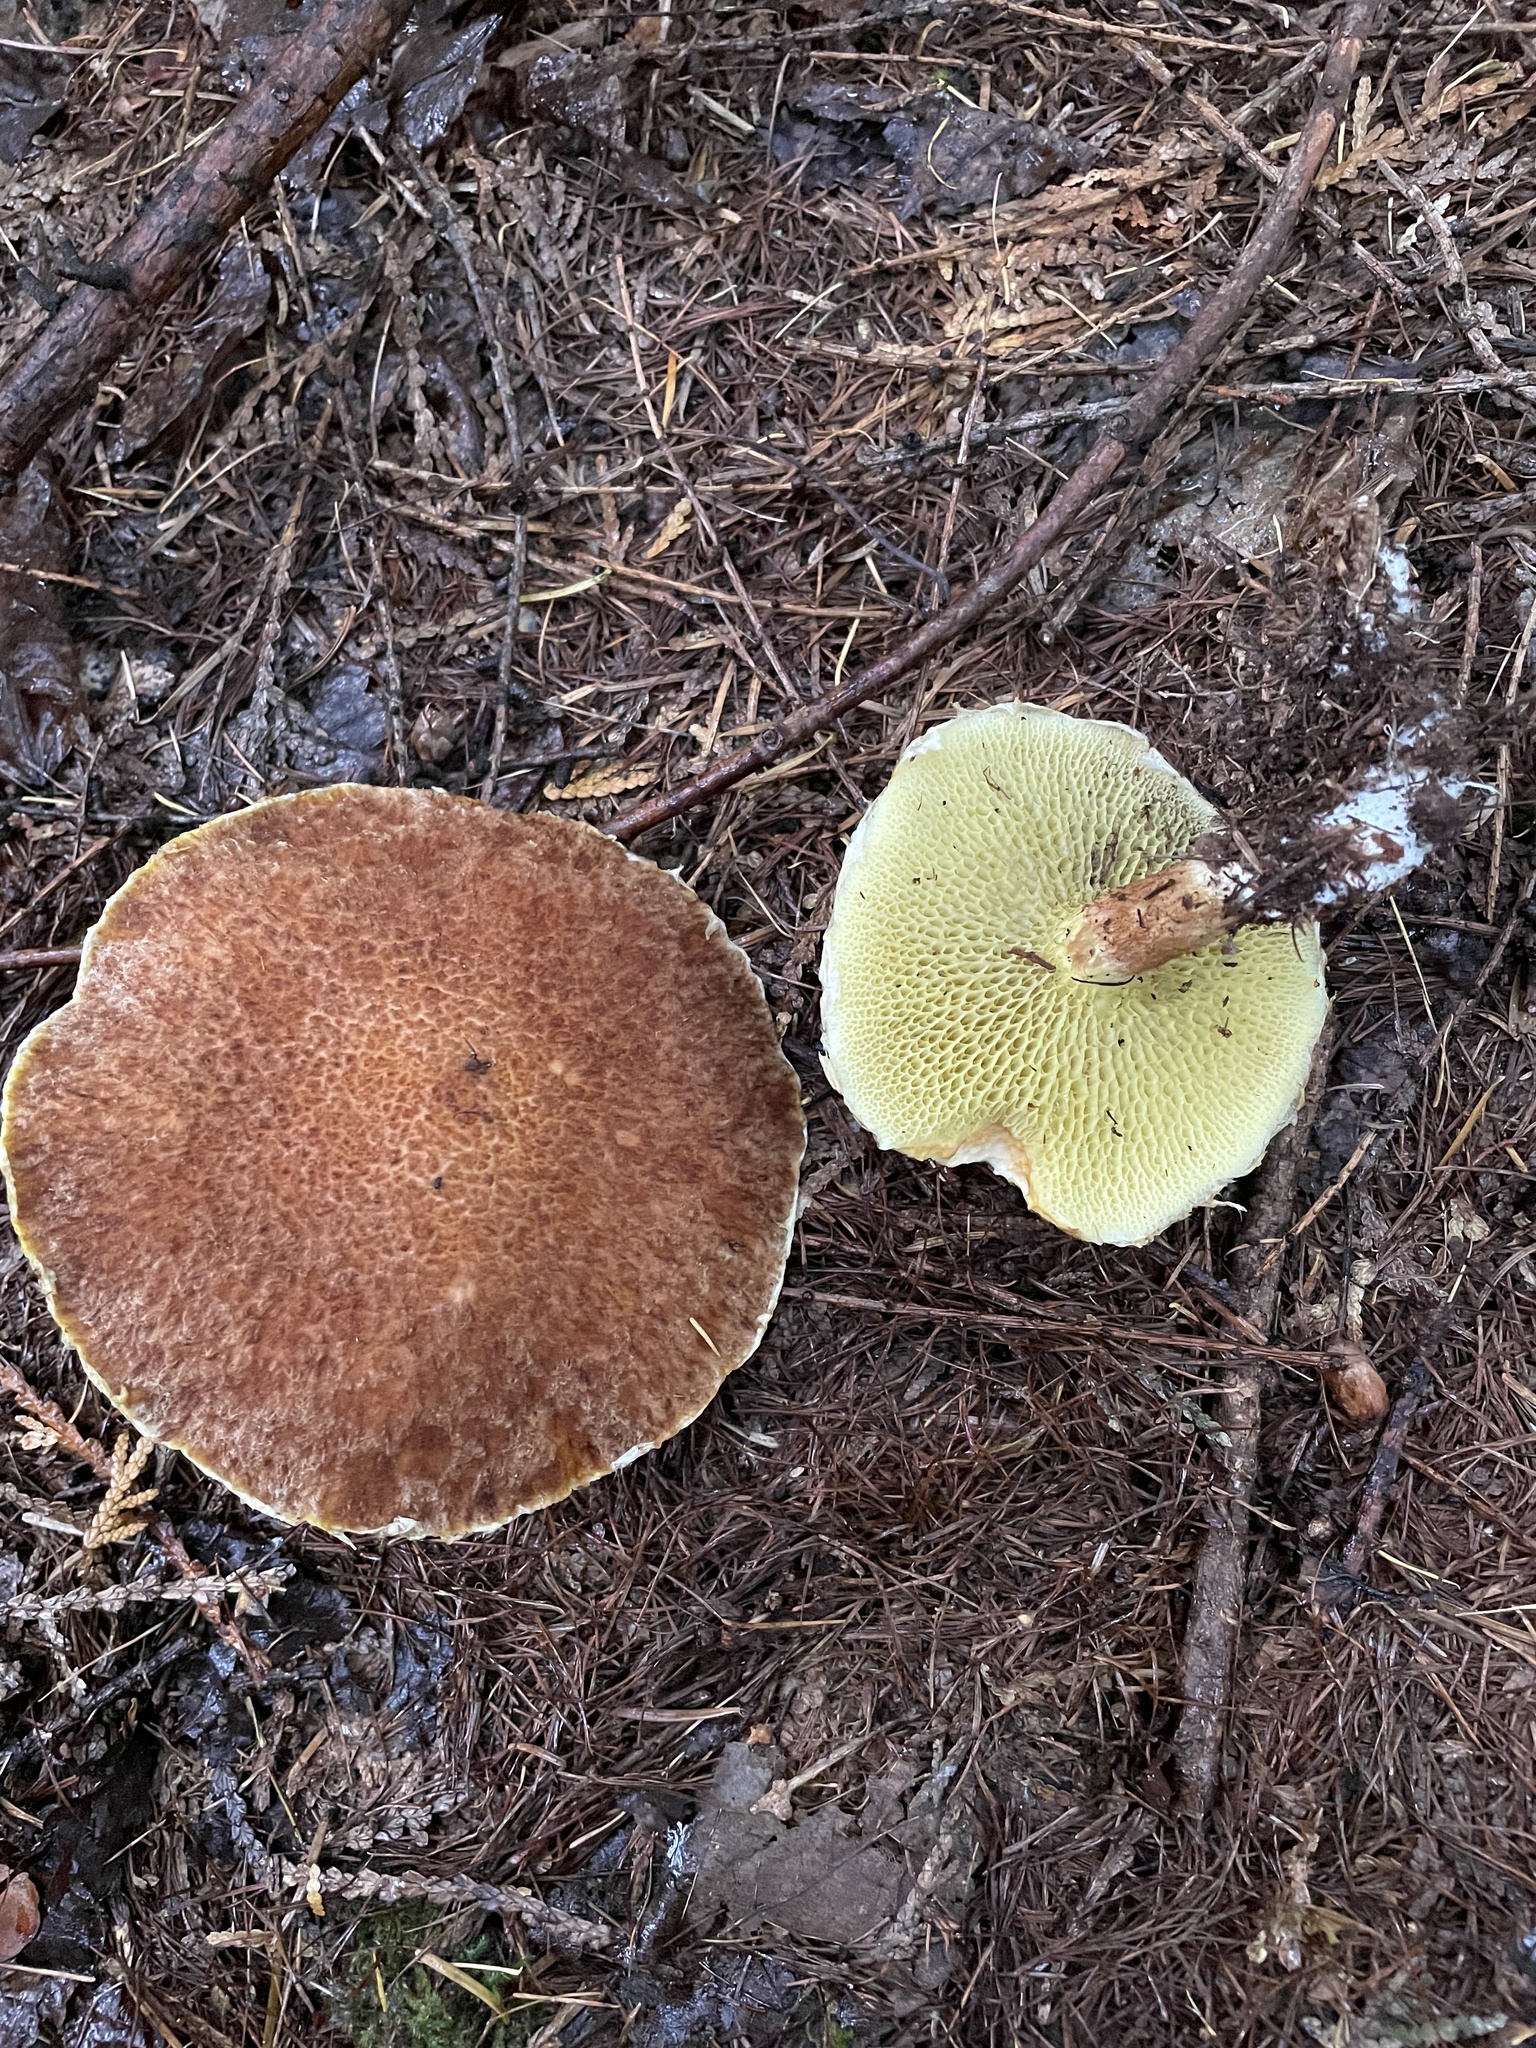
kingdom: Fungi
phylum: Basidiomycota
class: Agaricomycetes
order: Boletales
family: Suillaceae
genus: Boletinus
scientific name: Boletinus ampliporus
